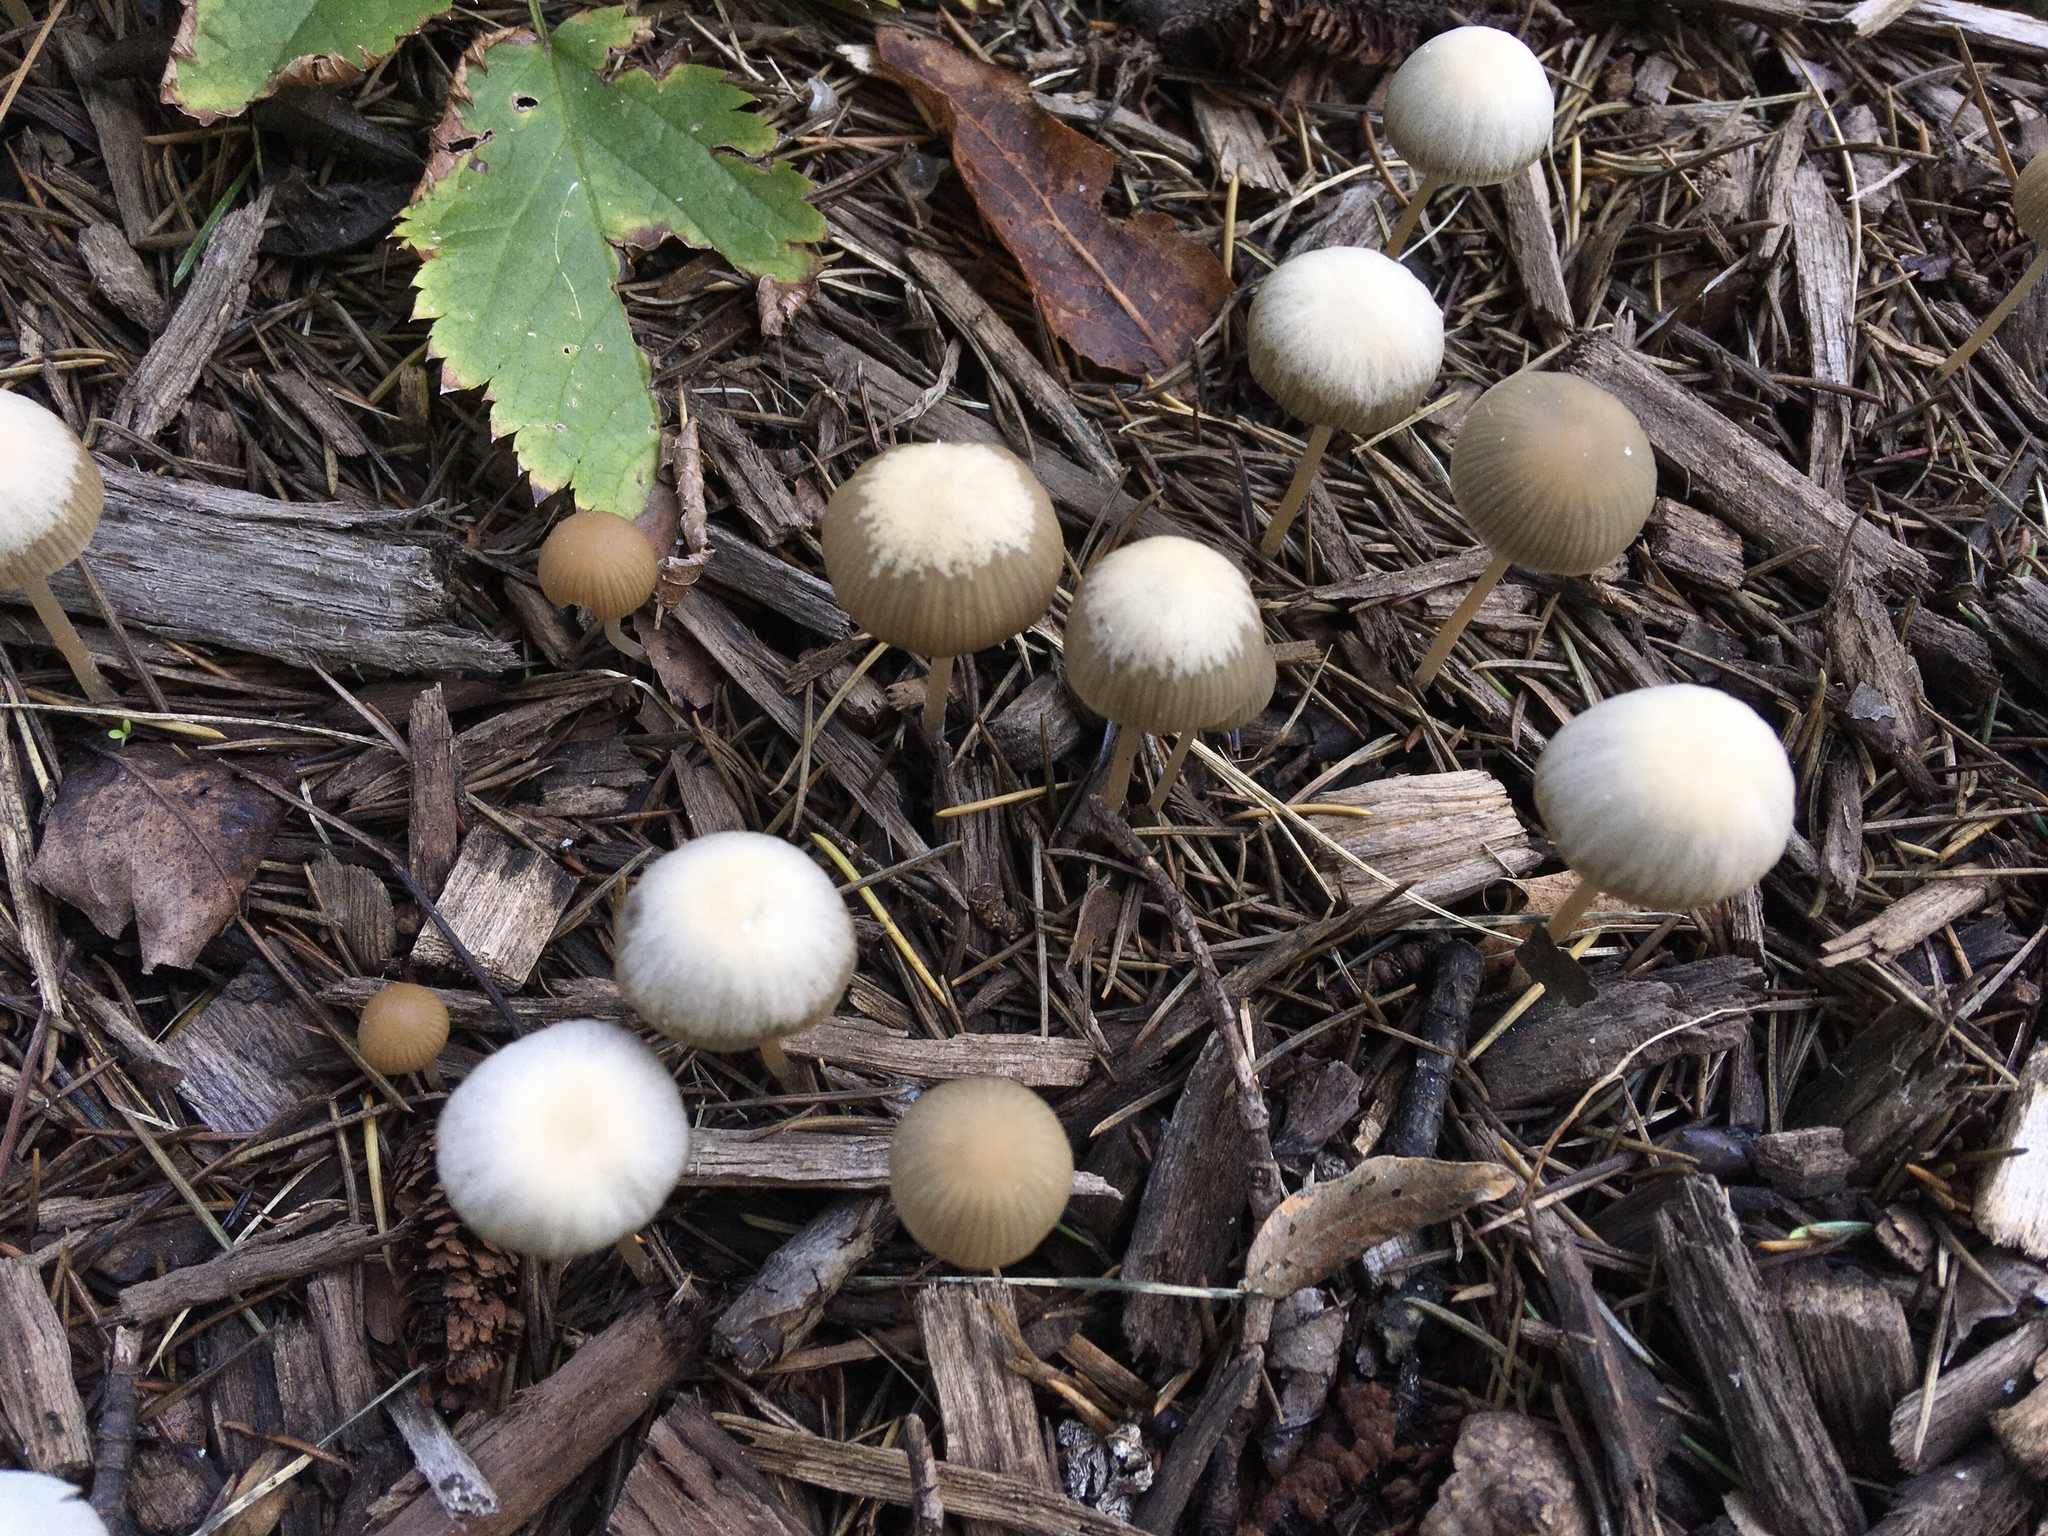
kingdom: Fungi
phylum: Basidiomycota
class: Agaricomycetes
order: Agaricales
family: Psathyrellaceae
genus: Psathyrella
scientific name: Psathyrella corrugis
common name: Red edge brittlestem
